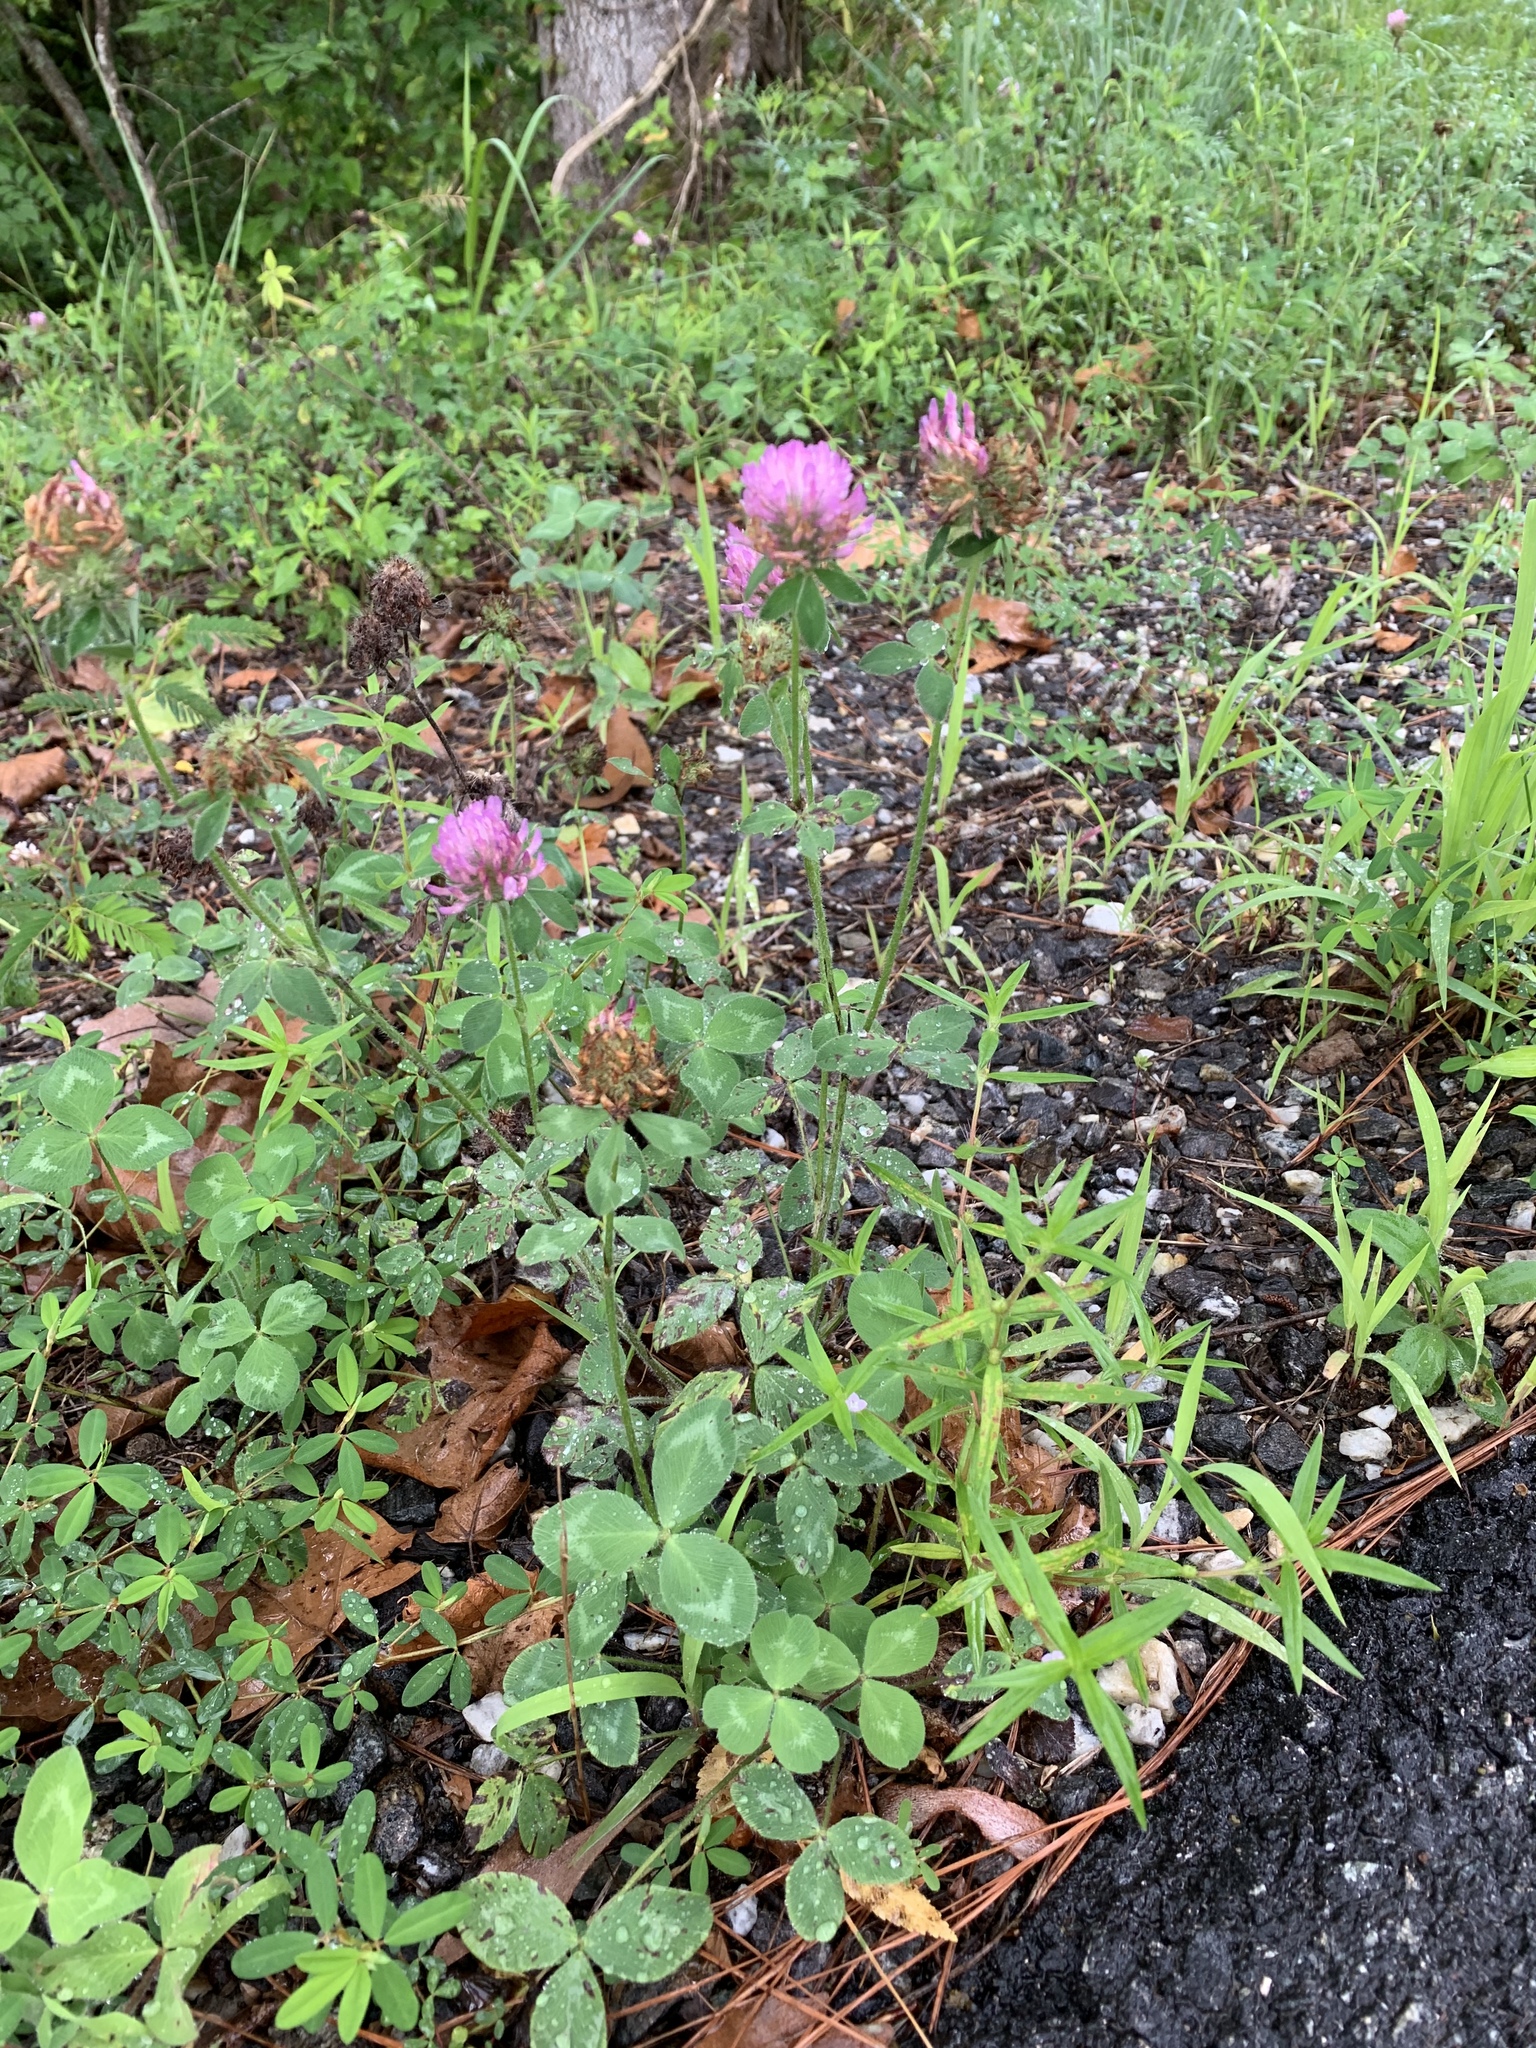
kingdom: Plantae
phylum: Tracheophyta
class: Magnoliopsida
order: Fabales
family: Fabaceae
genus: Trifolium
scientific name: Trifolium pratense
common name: Red clover
